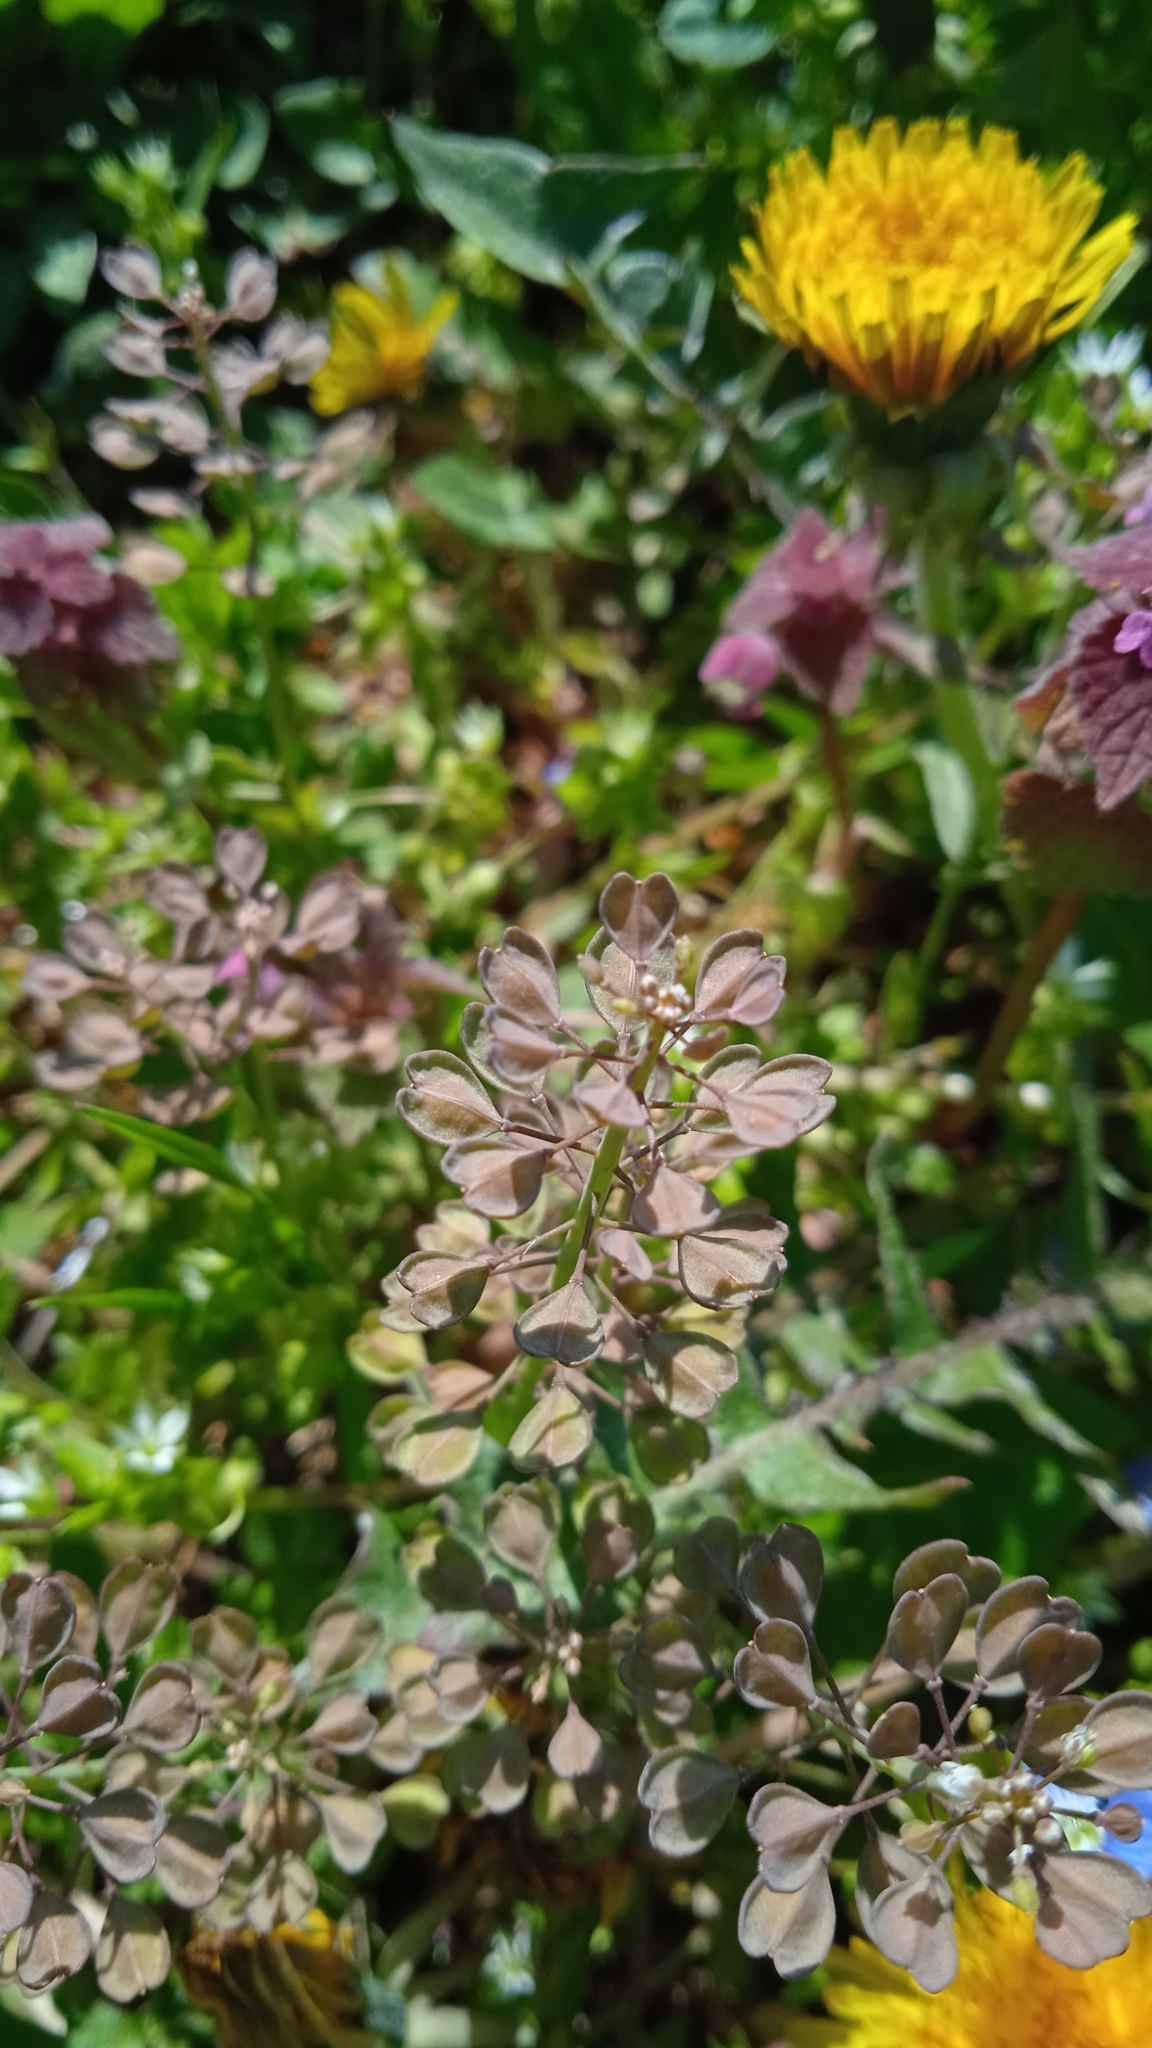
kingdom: Plantae
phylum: Tracheophyta
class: Magnoliopsida
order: Brassicales
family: Brassicaceae
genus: Noccaea
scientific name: Noccaea perfoliata
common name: Perfoliate pennycress
